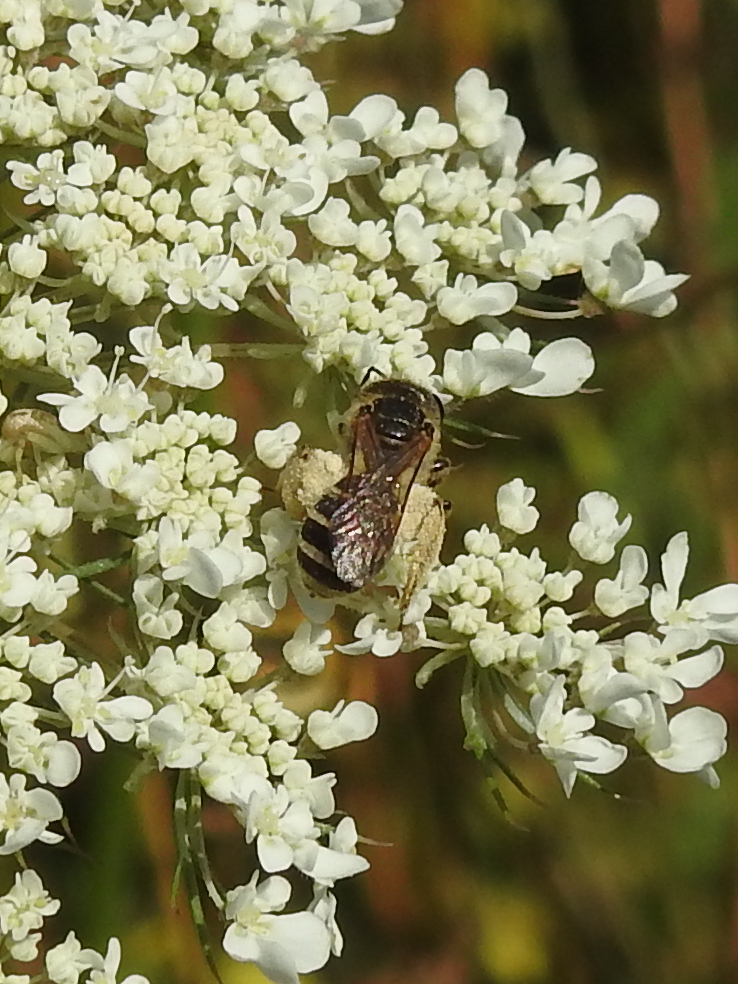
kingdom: Animalia
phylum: Arthropoda
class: Insecta
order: Hymenoptera
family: Halictidae
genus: Halictus
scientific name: Halictus ligatus
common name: Ligated furrow bee
